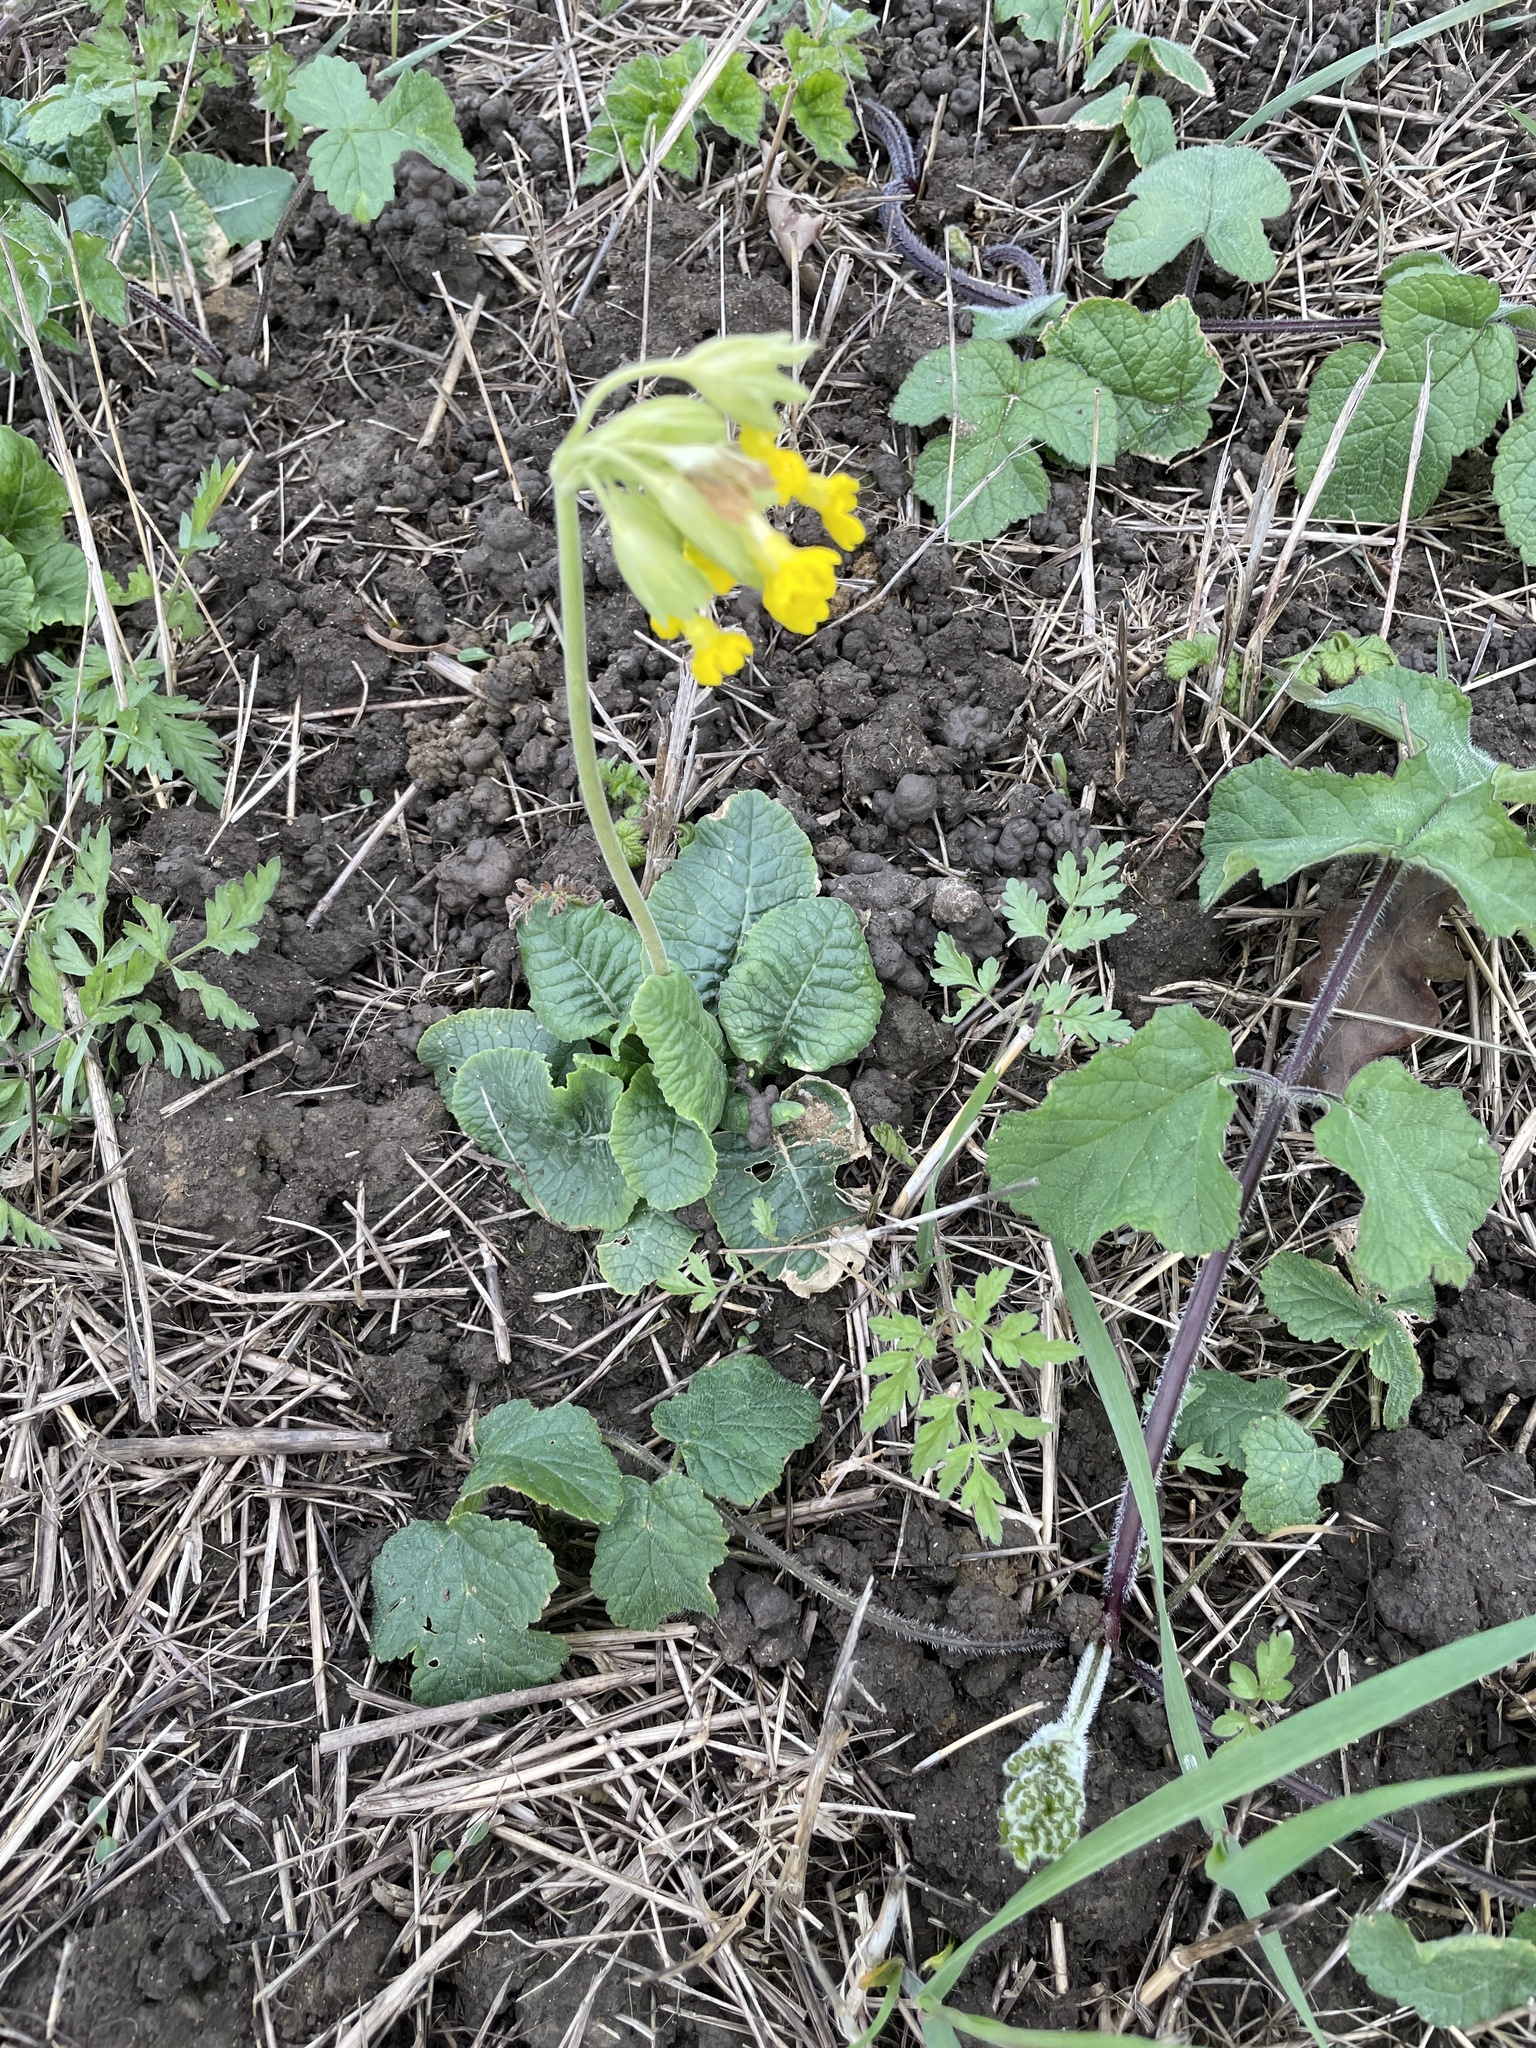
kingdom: Plantae
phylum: Tracheophyta
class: Magnoliopsida
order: Ericales
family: Primulaceae
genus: Primula
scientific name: Primula veris
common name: Cowslip
